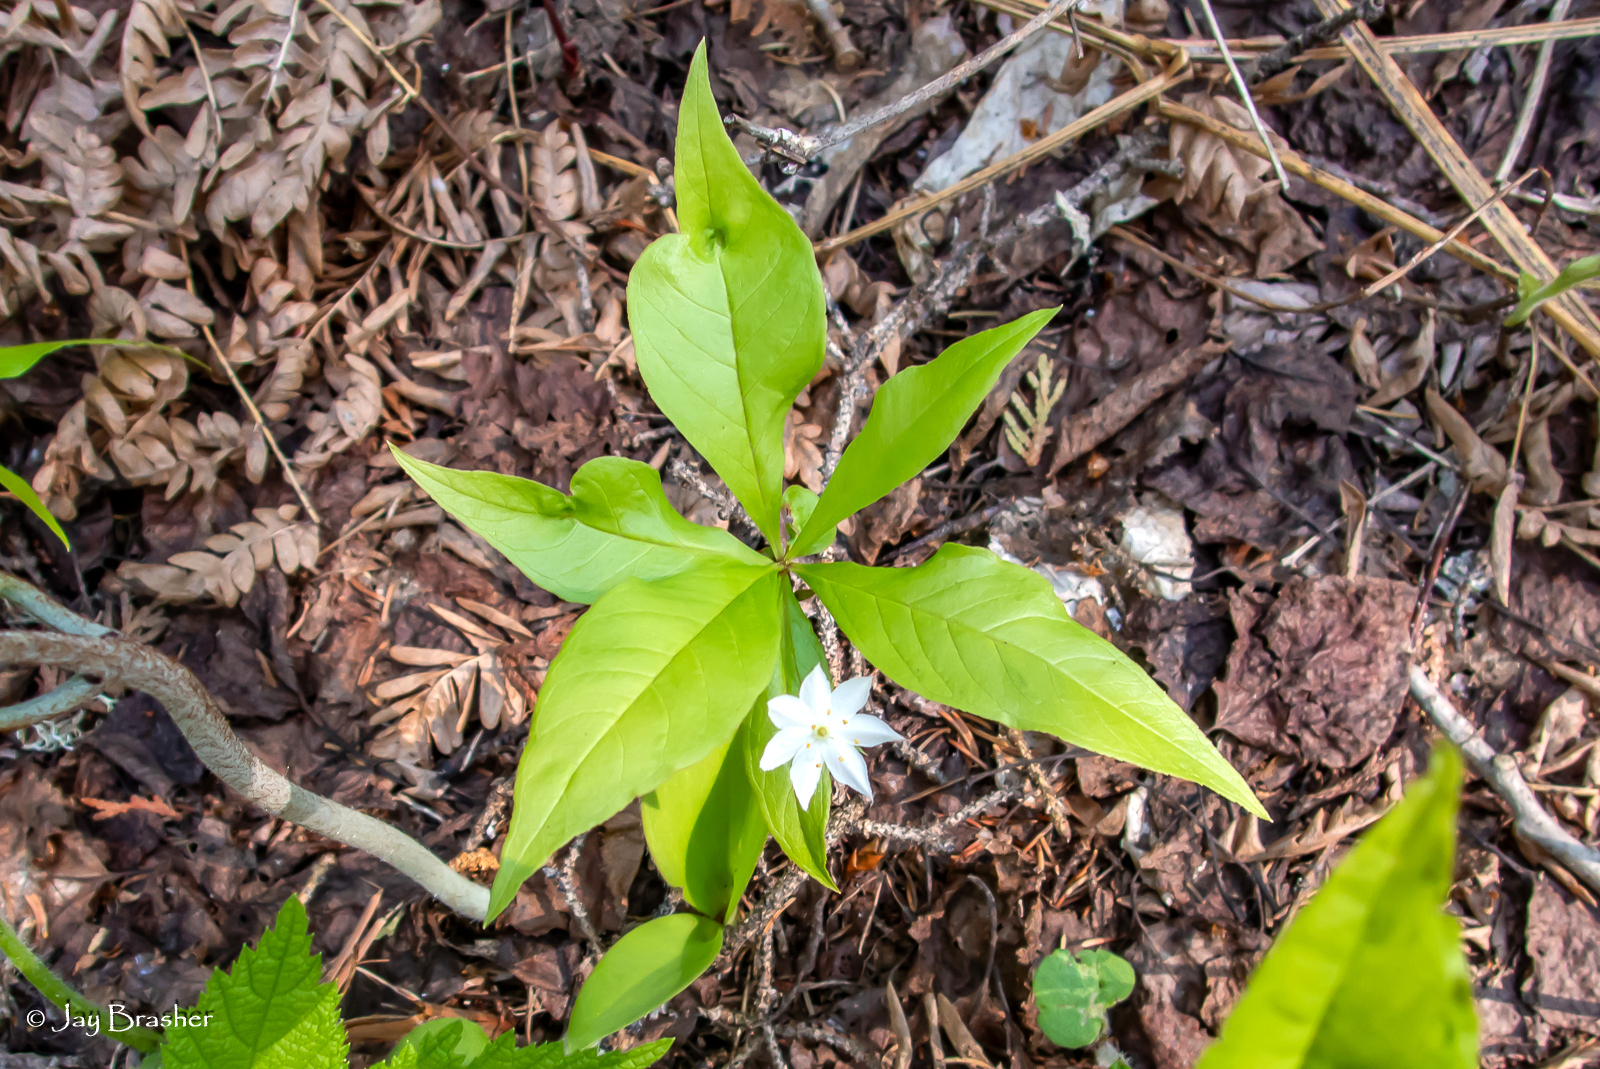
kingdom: Plantae
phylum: Tracheophyta
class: Magnoliopsida
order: Ericales
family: Primulaceae
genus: Lysimachia
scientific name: Lysimachia borealis
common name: American starflower
